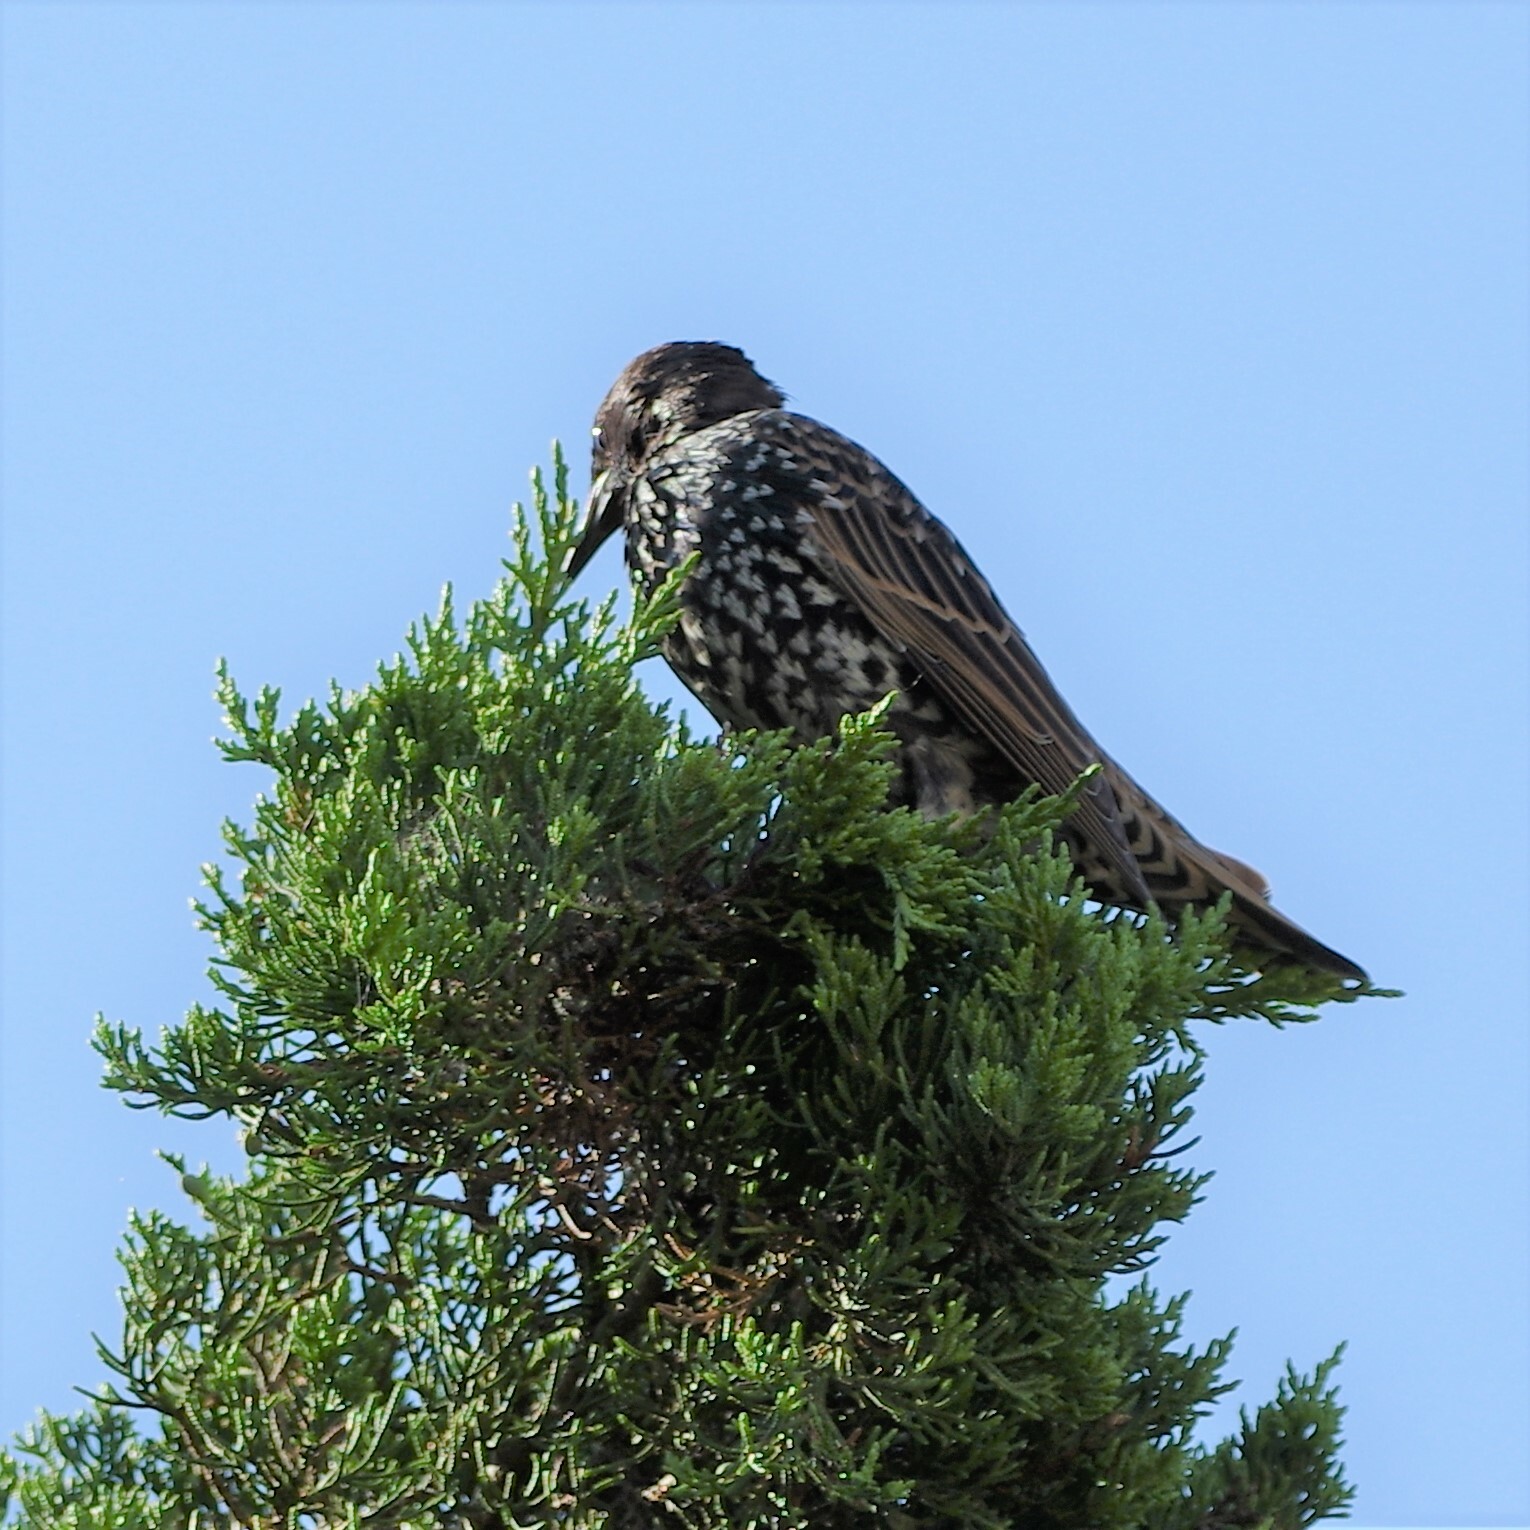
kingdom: Animalia
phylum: Chordata
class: Aves
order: Passeriformes
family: Sturnidae
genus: Sturnus
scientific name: Sturnus vulgaris
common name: Common starling
